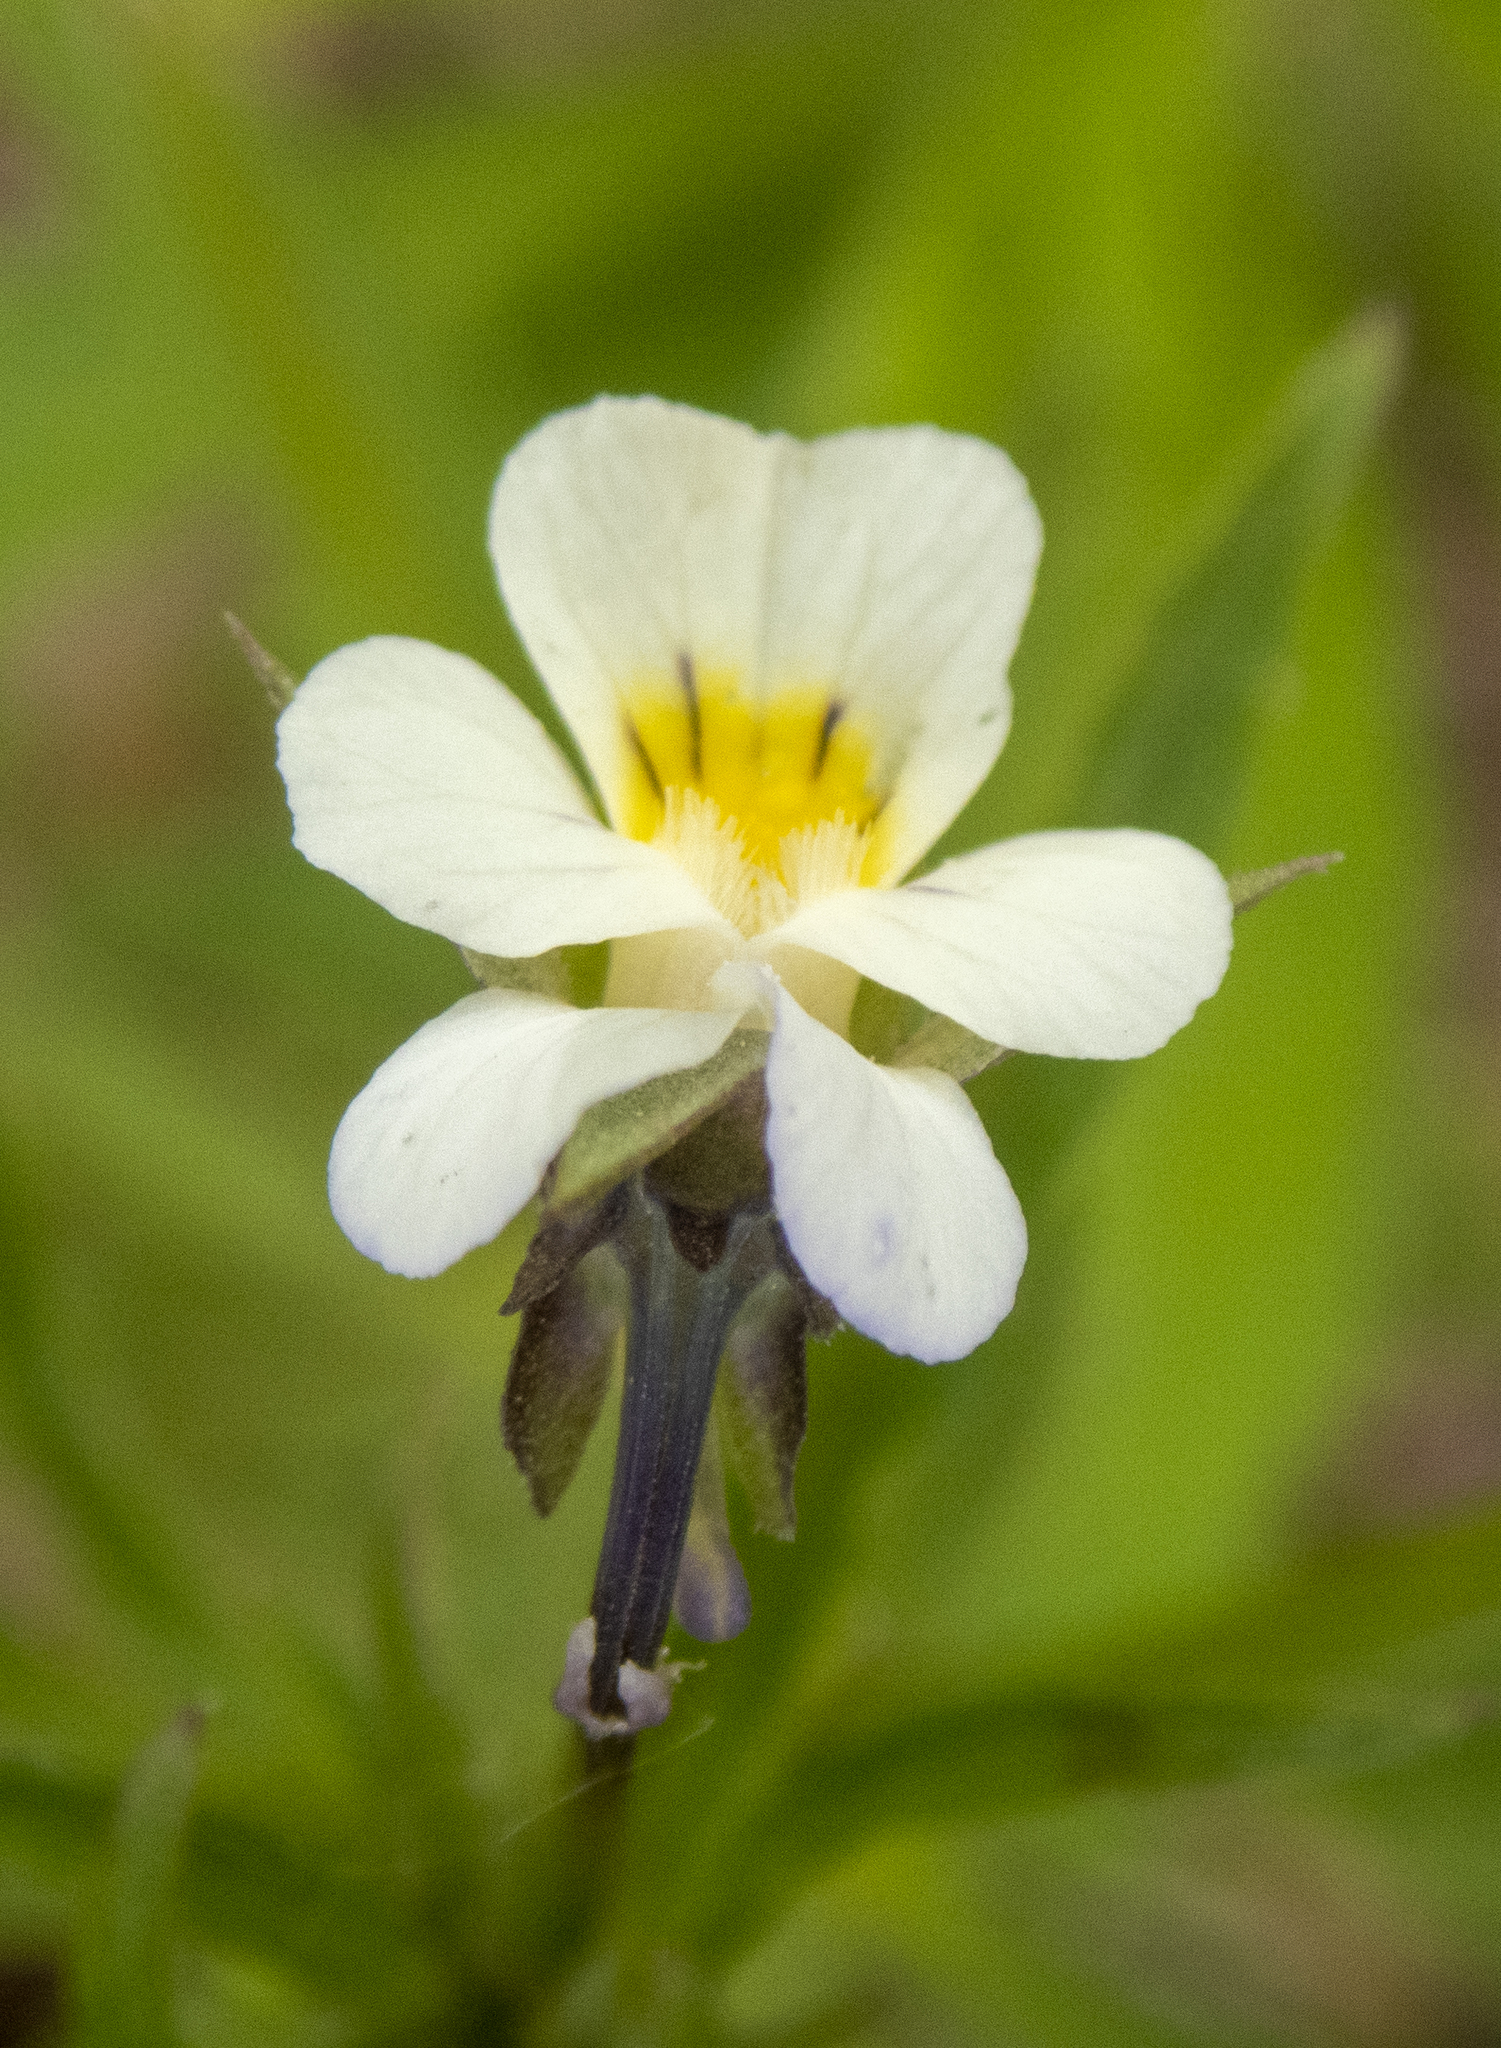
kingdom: Plantae
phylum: Tracheophyta
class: Magnoliopsida
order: Malpighiales
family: Violaceae
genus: Viola
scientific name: Viola arvensis
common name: Field pansy
